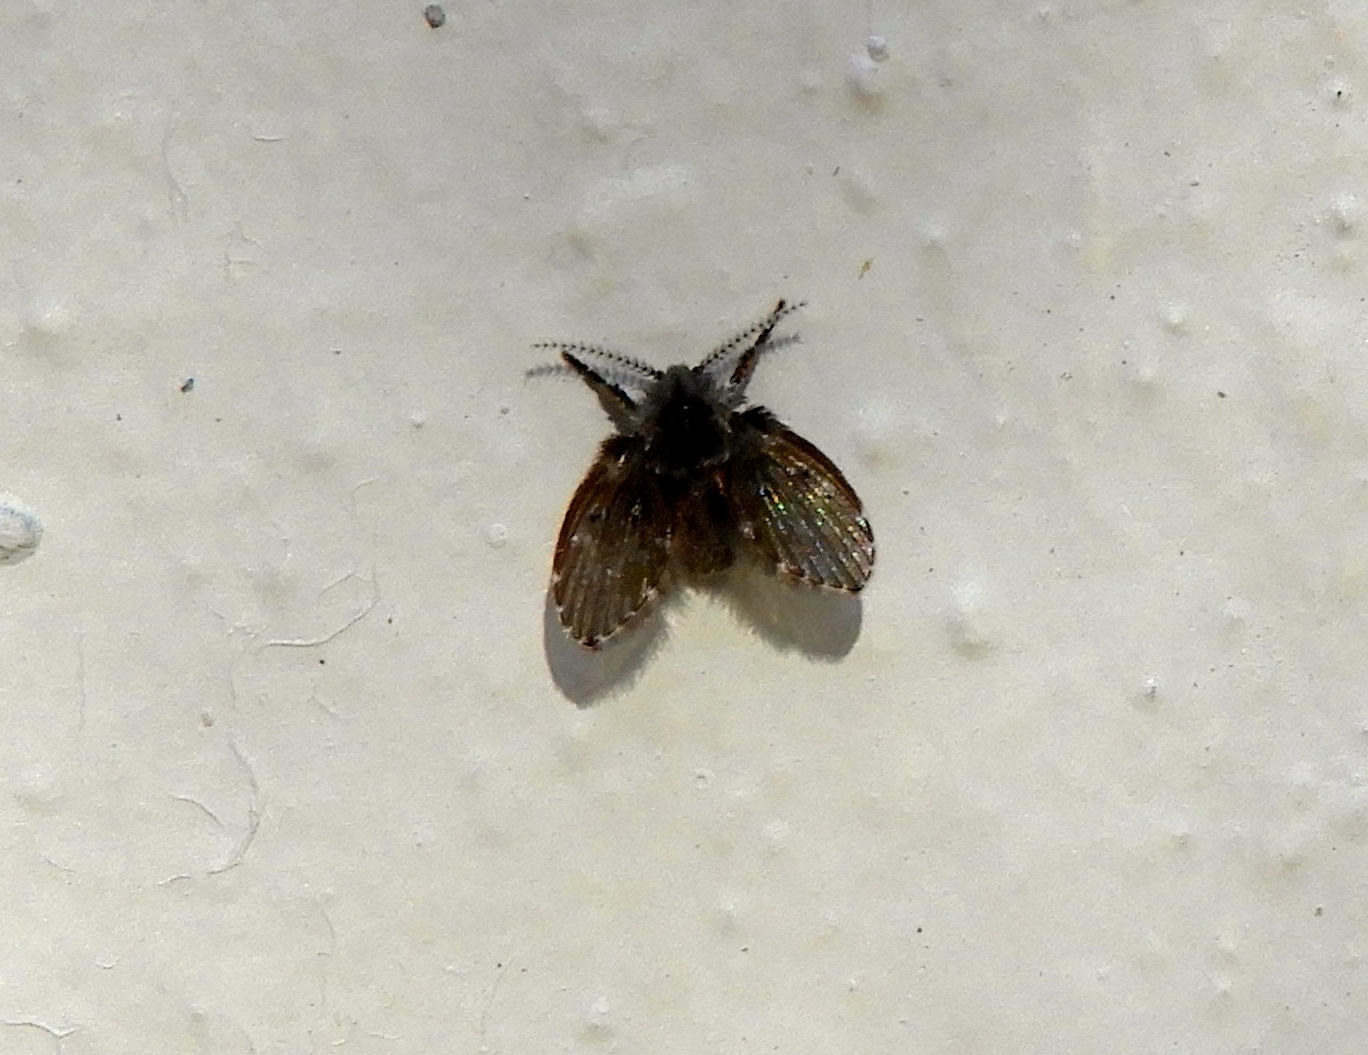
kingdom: Animalia
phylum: Arthropoda
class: Insecta
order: Diptera
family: Psychodidae
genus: Clogmia
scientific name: Clogmia albipunctatus
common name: White-spotted moth fly
